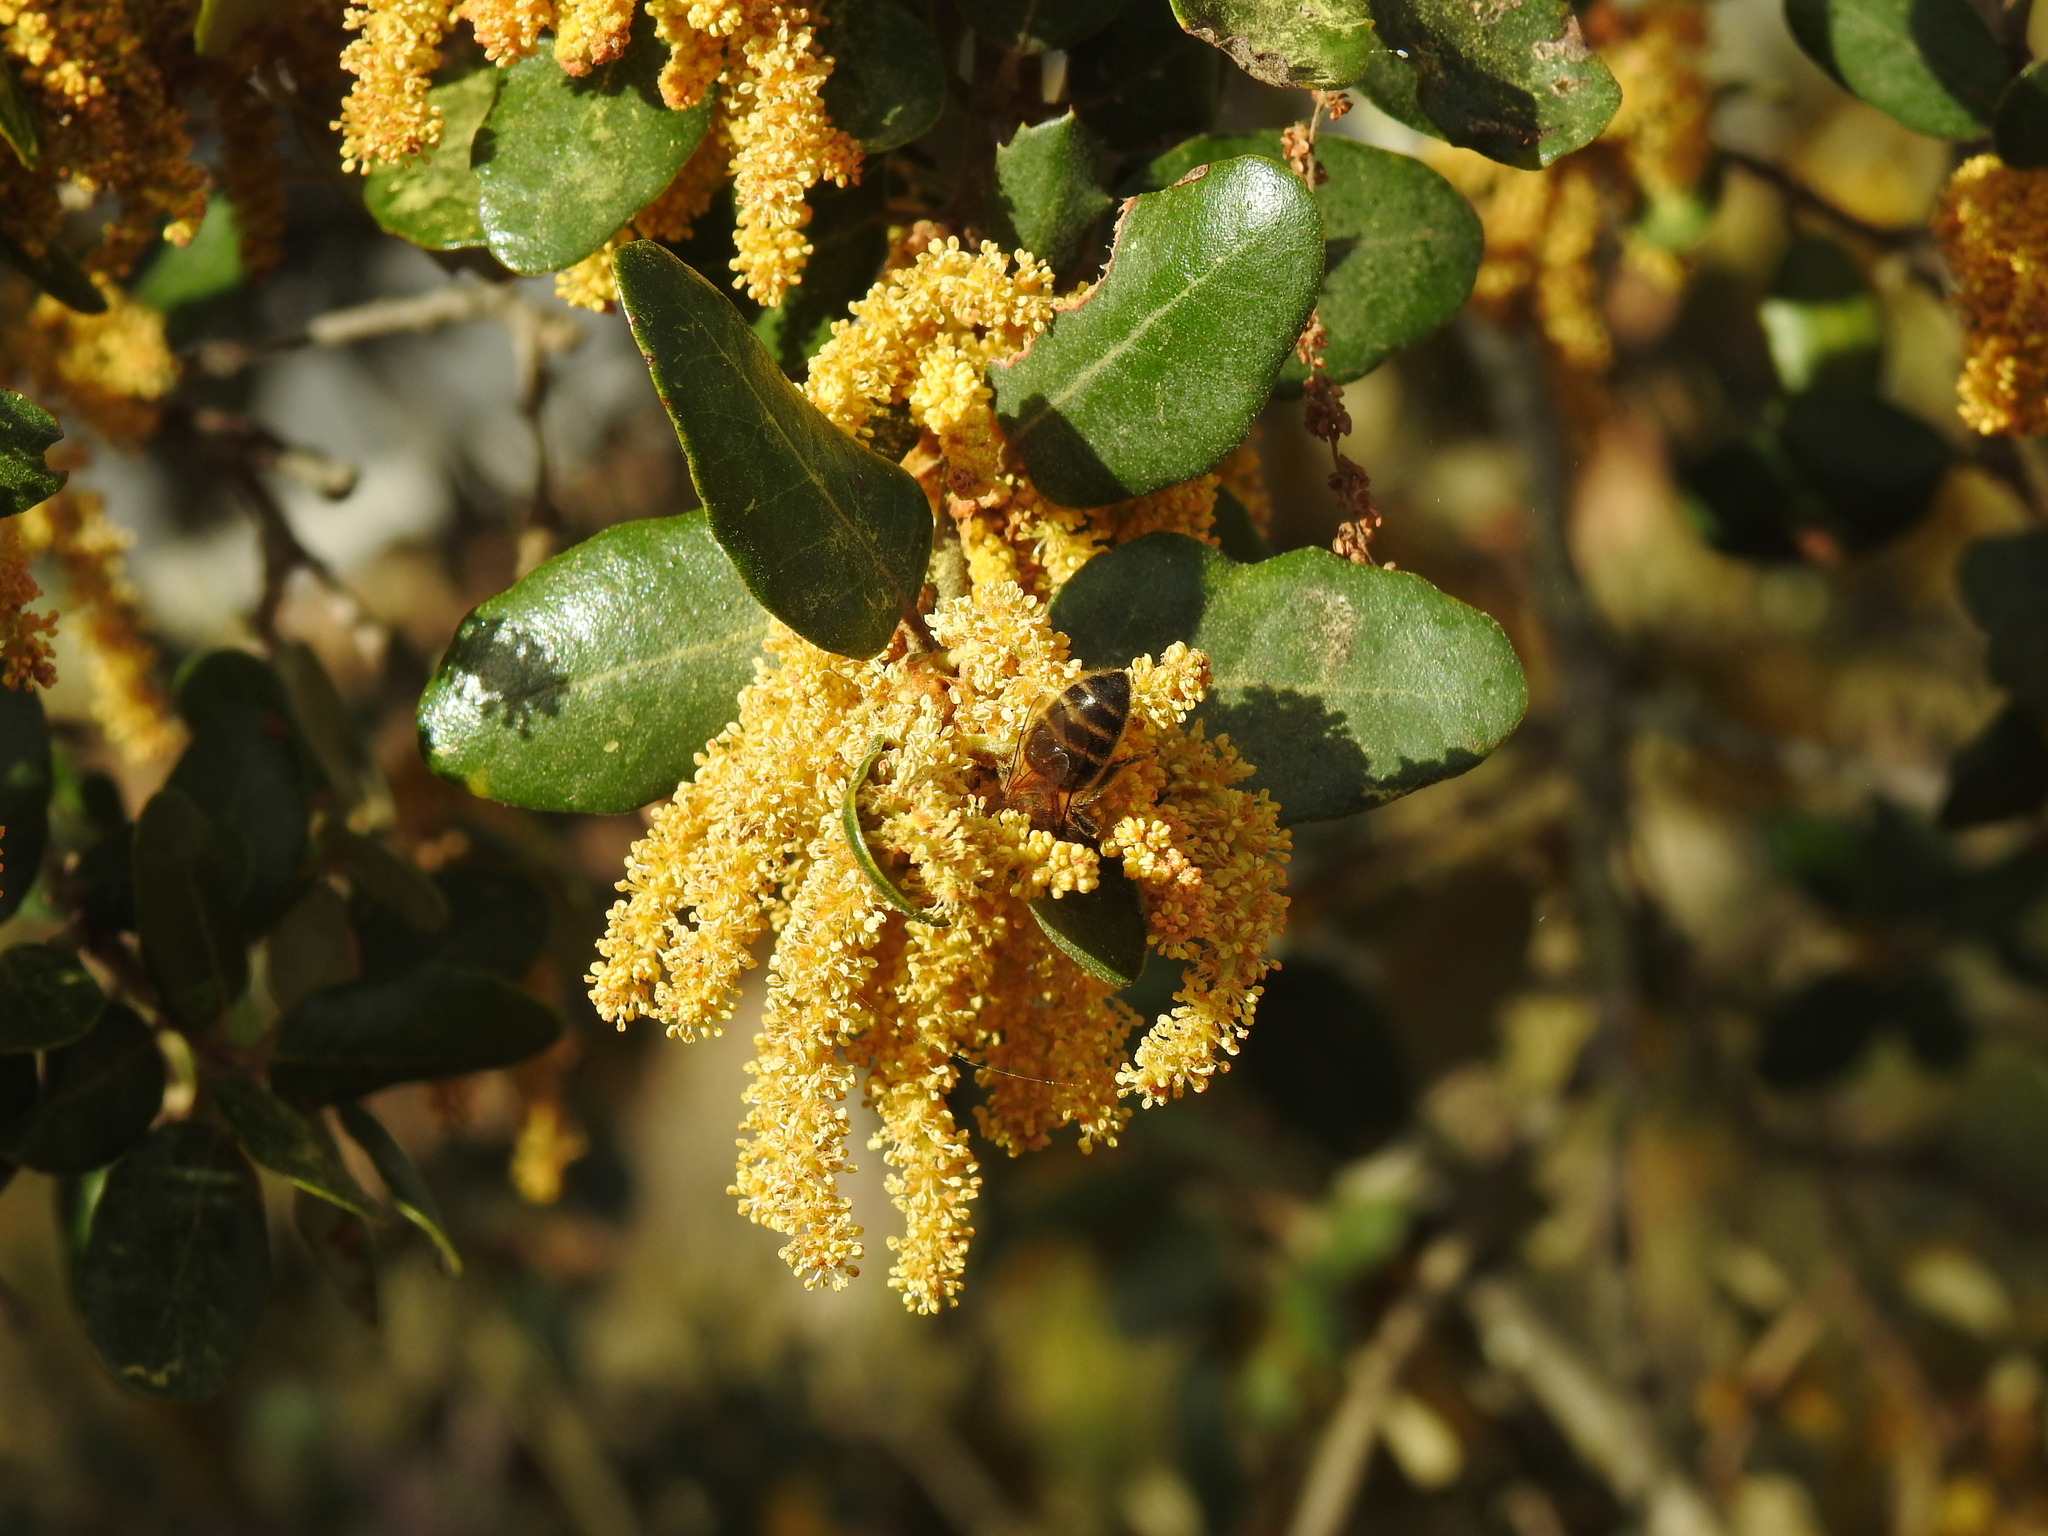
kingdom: Animalia
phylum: Arthropoda
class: Insecta
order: Hymenoptera
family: Apidae
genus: Apis
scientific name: Apis mellifera
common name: Honey bee
